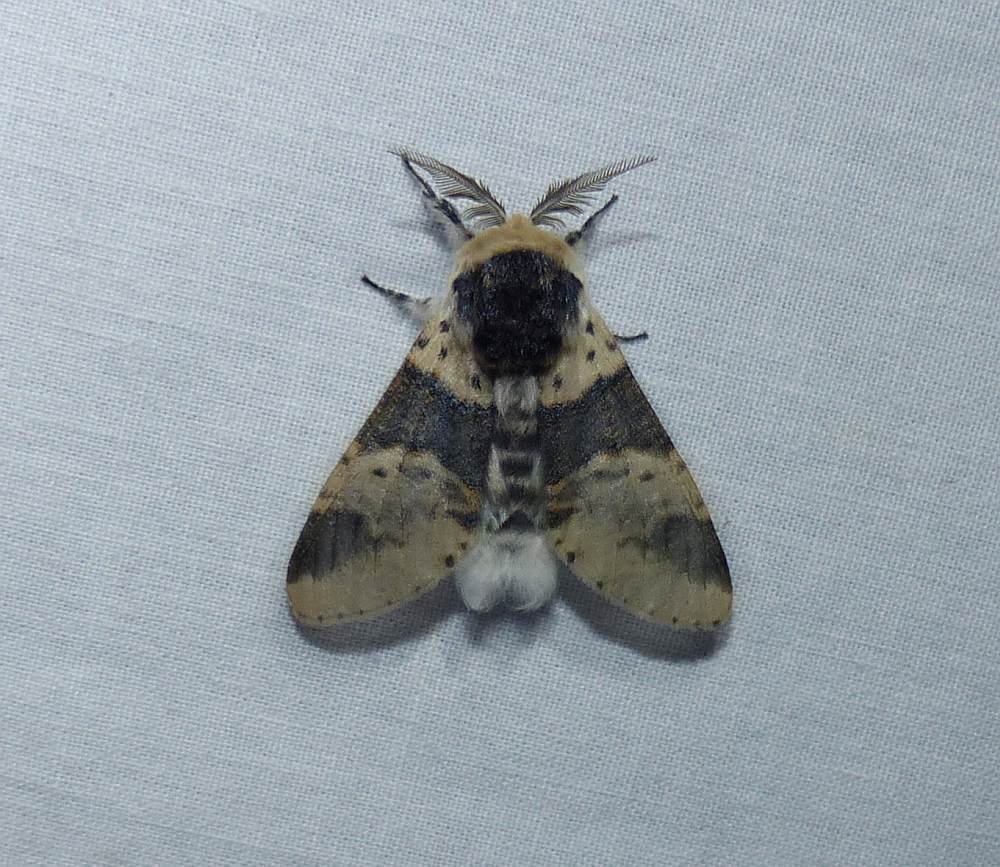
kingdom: Animalia
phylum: Arthropoda
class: Insecta
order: Lepidoptera
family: Notodontidae
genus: Furcula
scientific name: Furcula modesta
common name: Modest furcula moth
